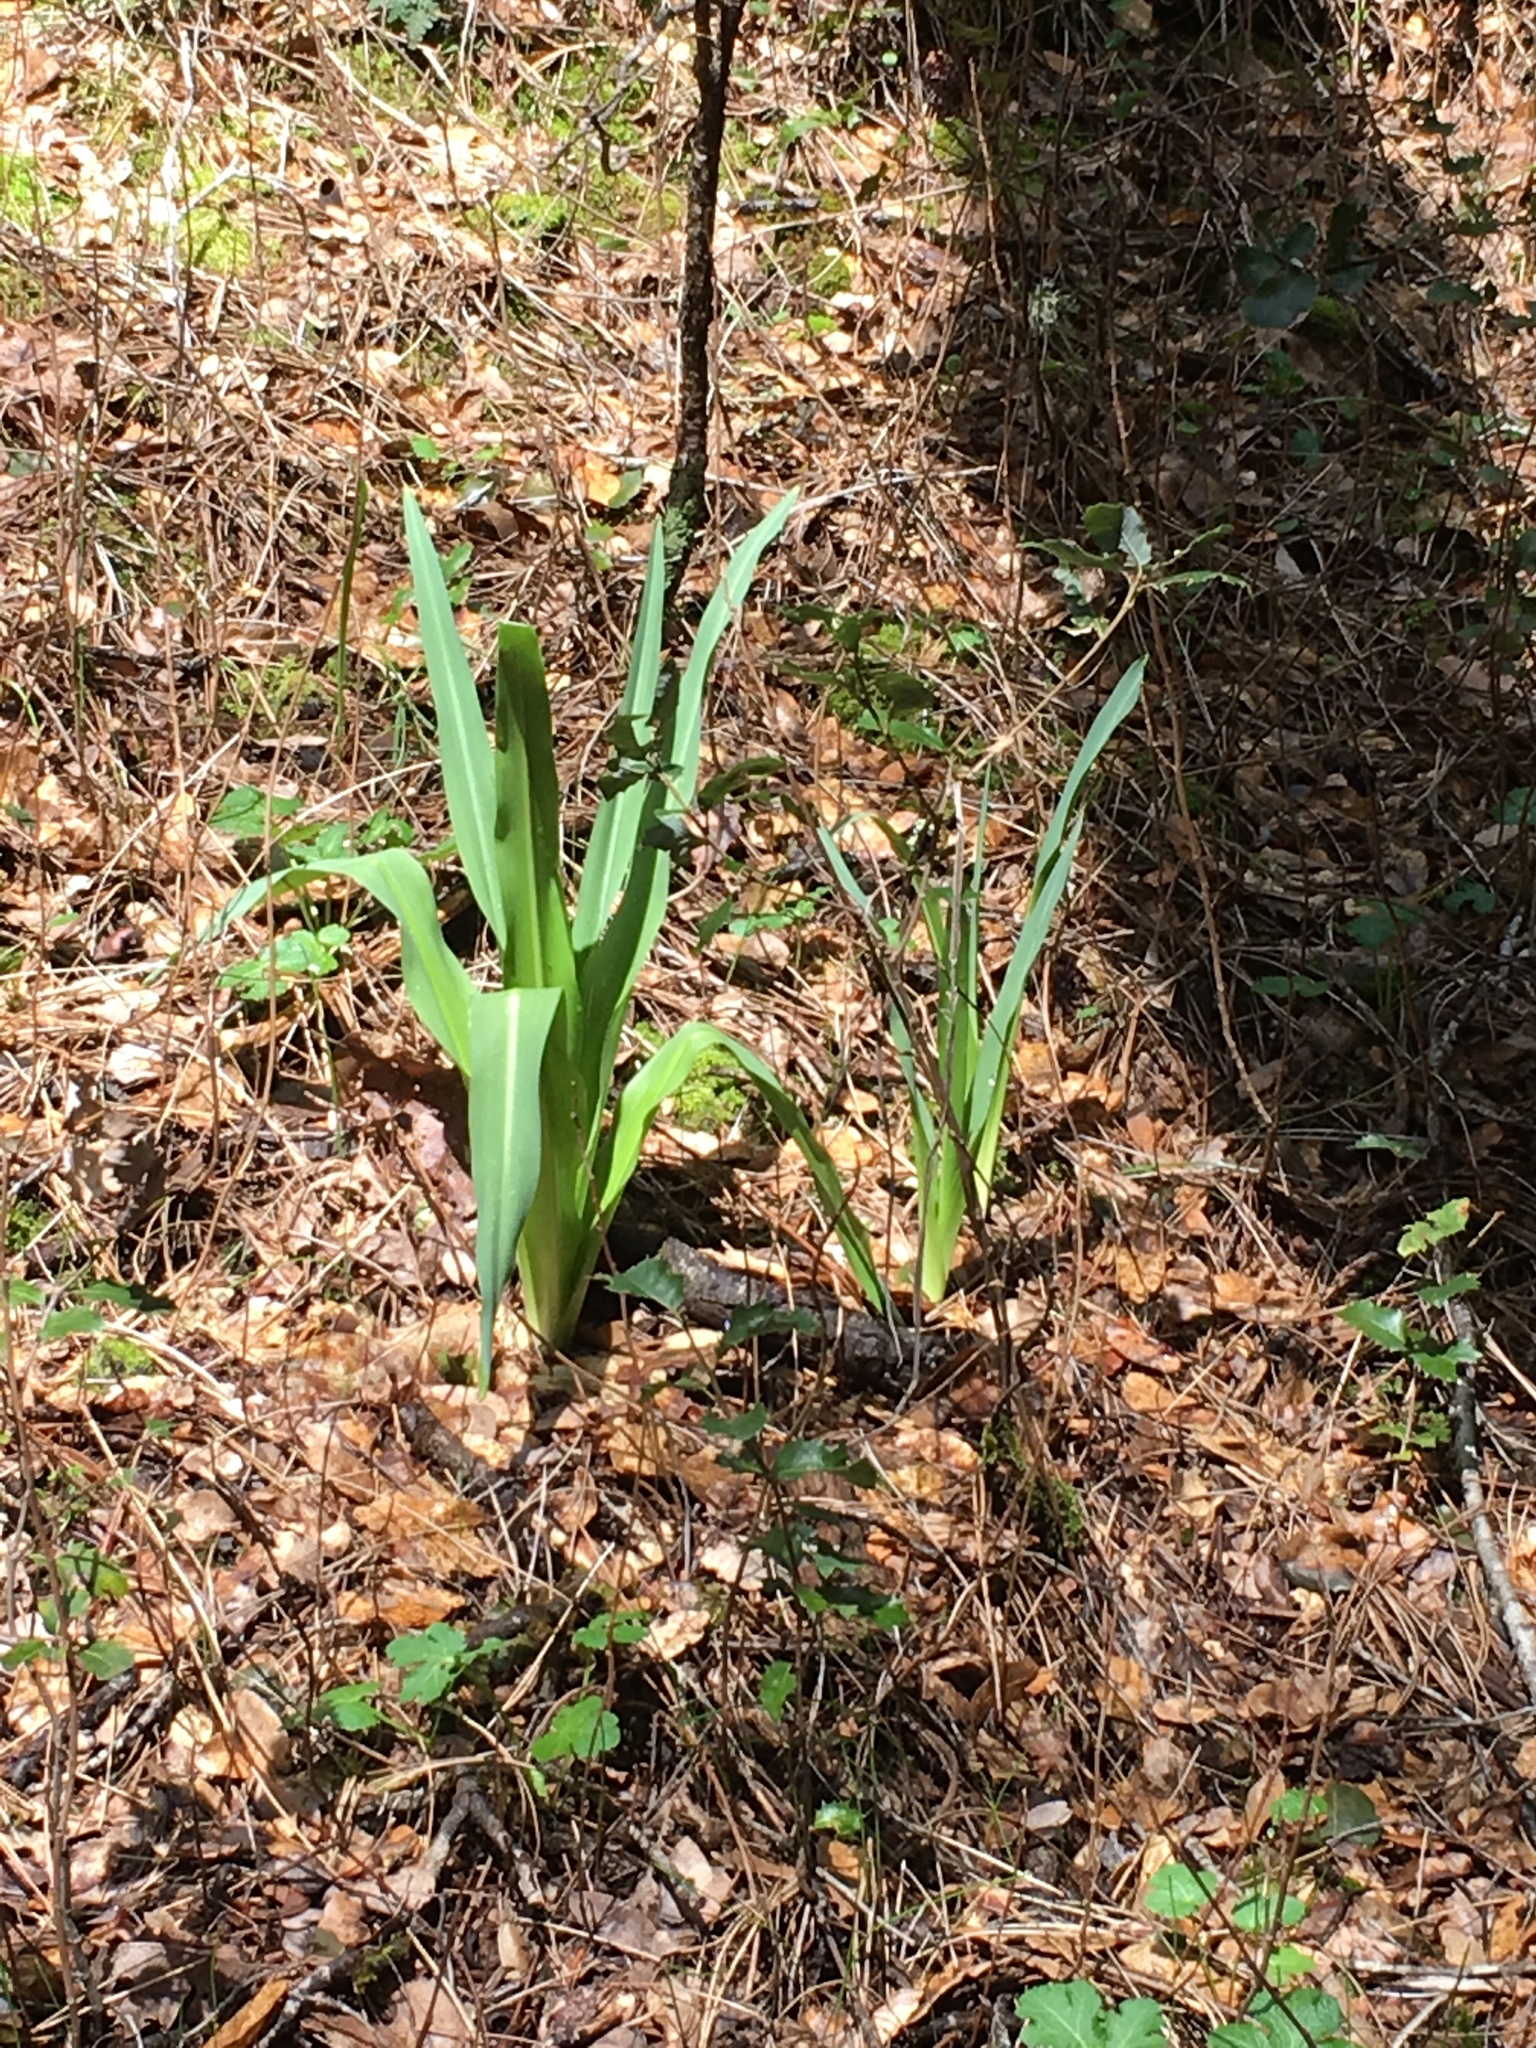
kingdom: Plantae
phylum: Tracheophyta
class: Liliopsida
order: Asparagales
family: Asparagaceae
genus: Chlorogalum
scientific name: Chlorogalum pomeridianum
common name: Amole
